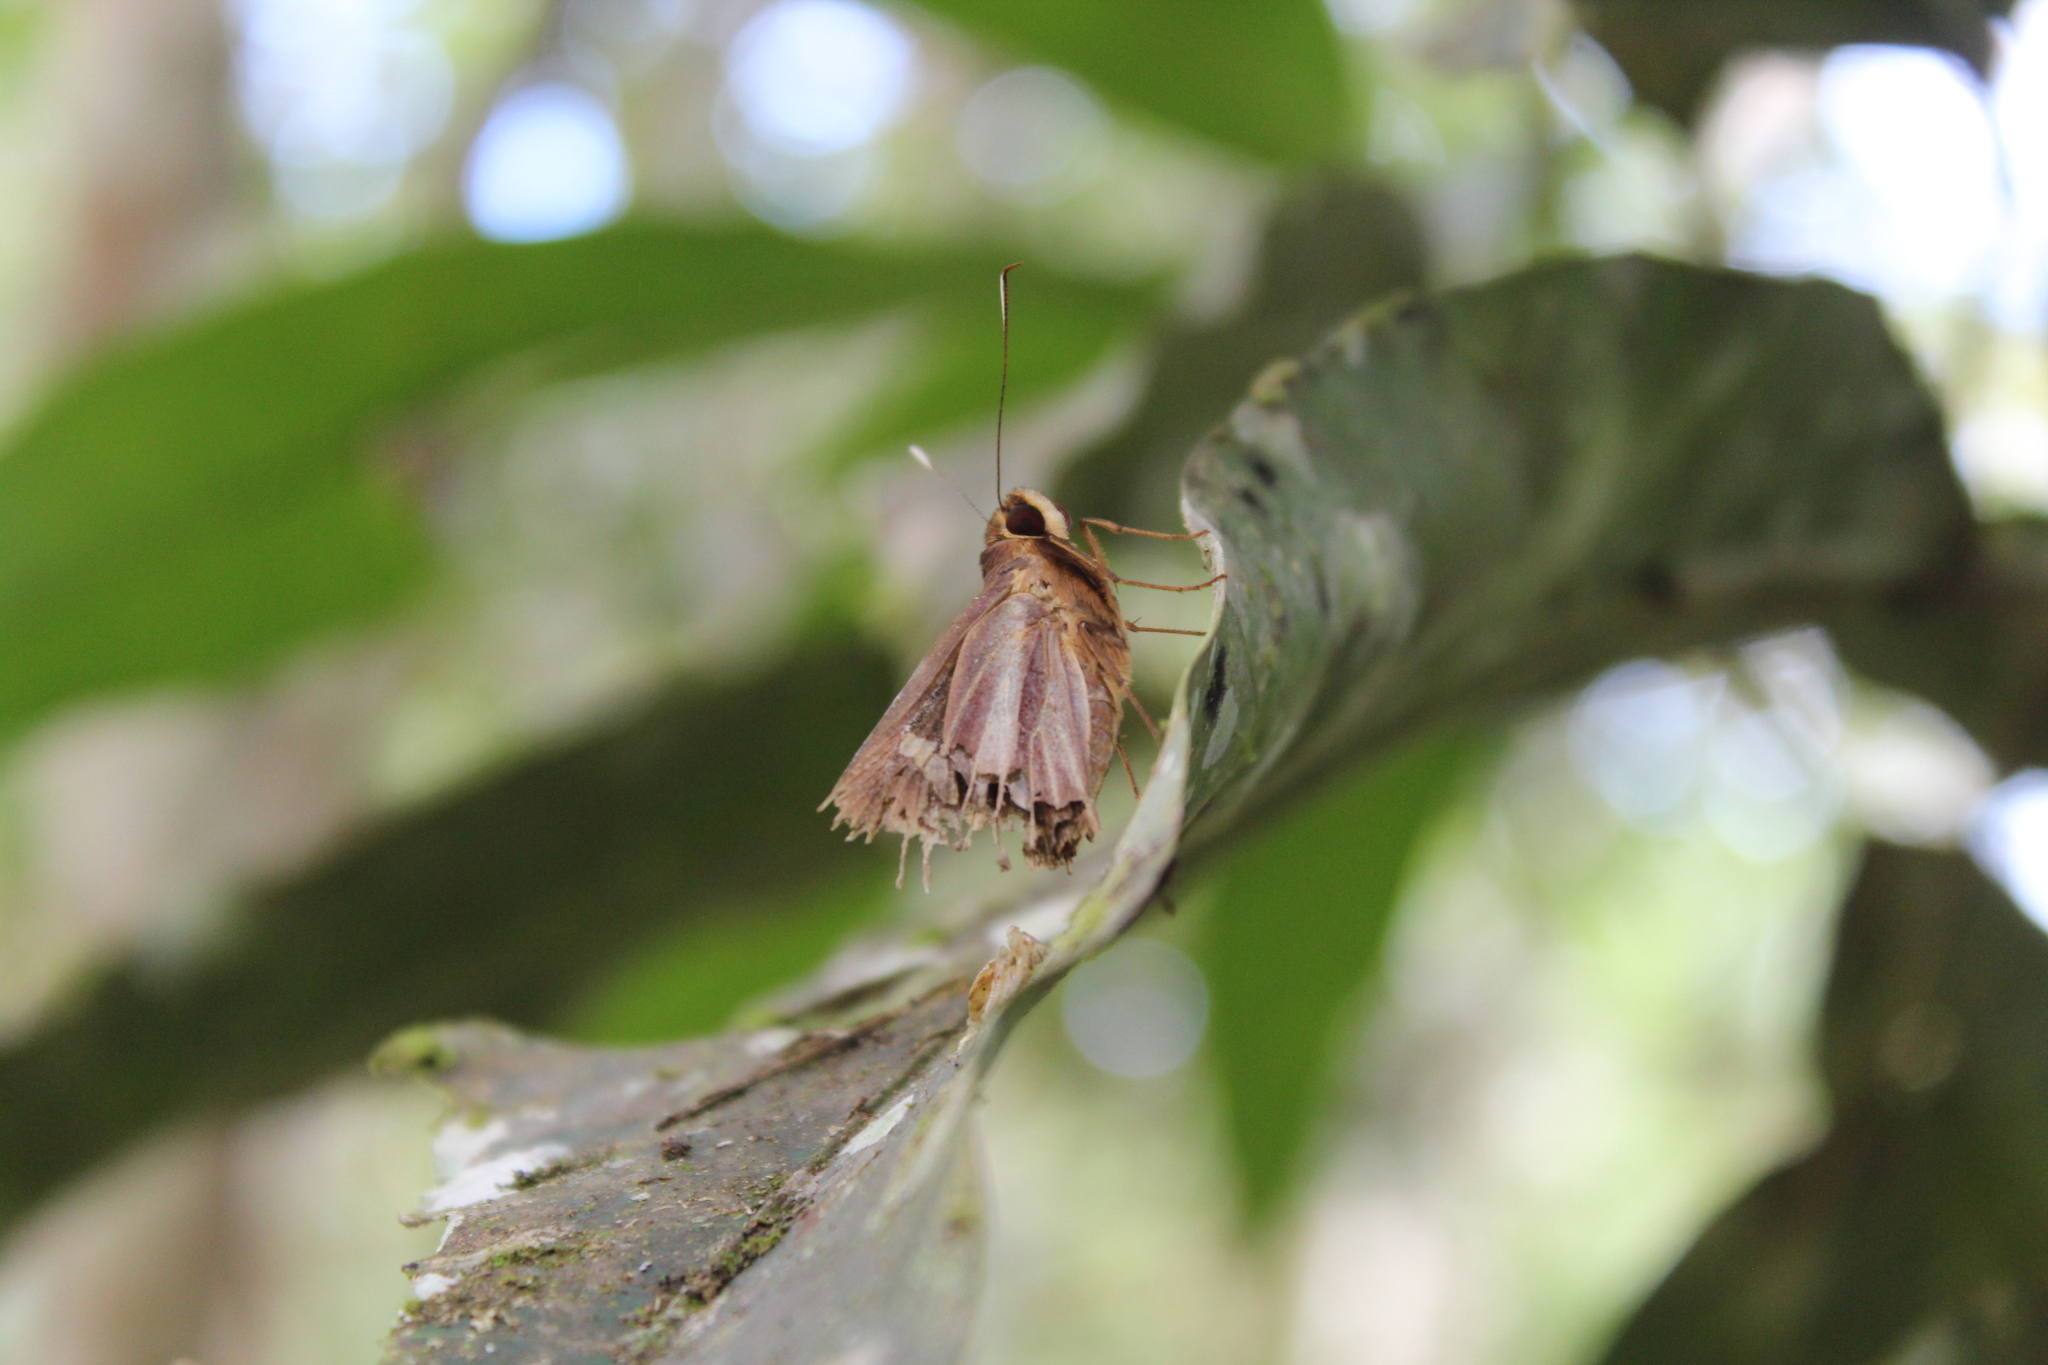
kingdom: Animalia
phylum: Arthropoda
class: Insecta
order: Lepidoptera
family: Hesperiidae
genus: Carystoides
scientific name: Carystoides cathaea
